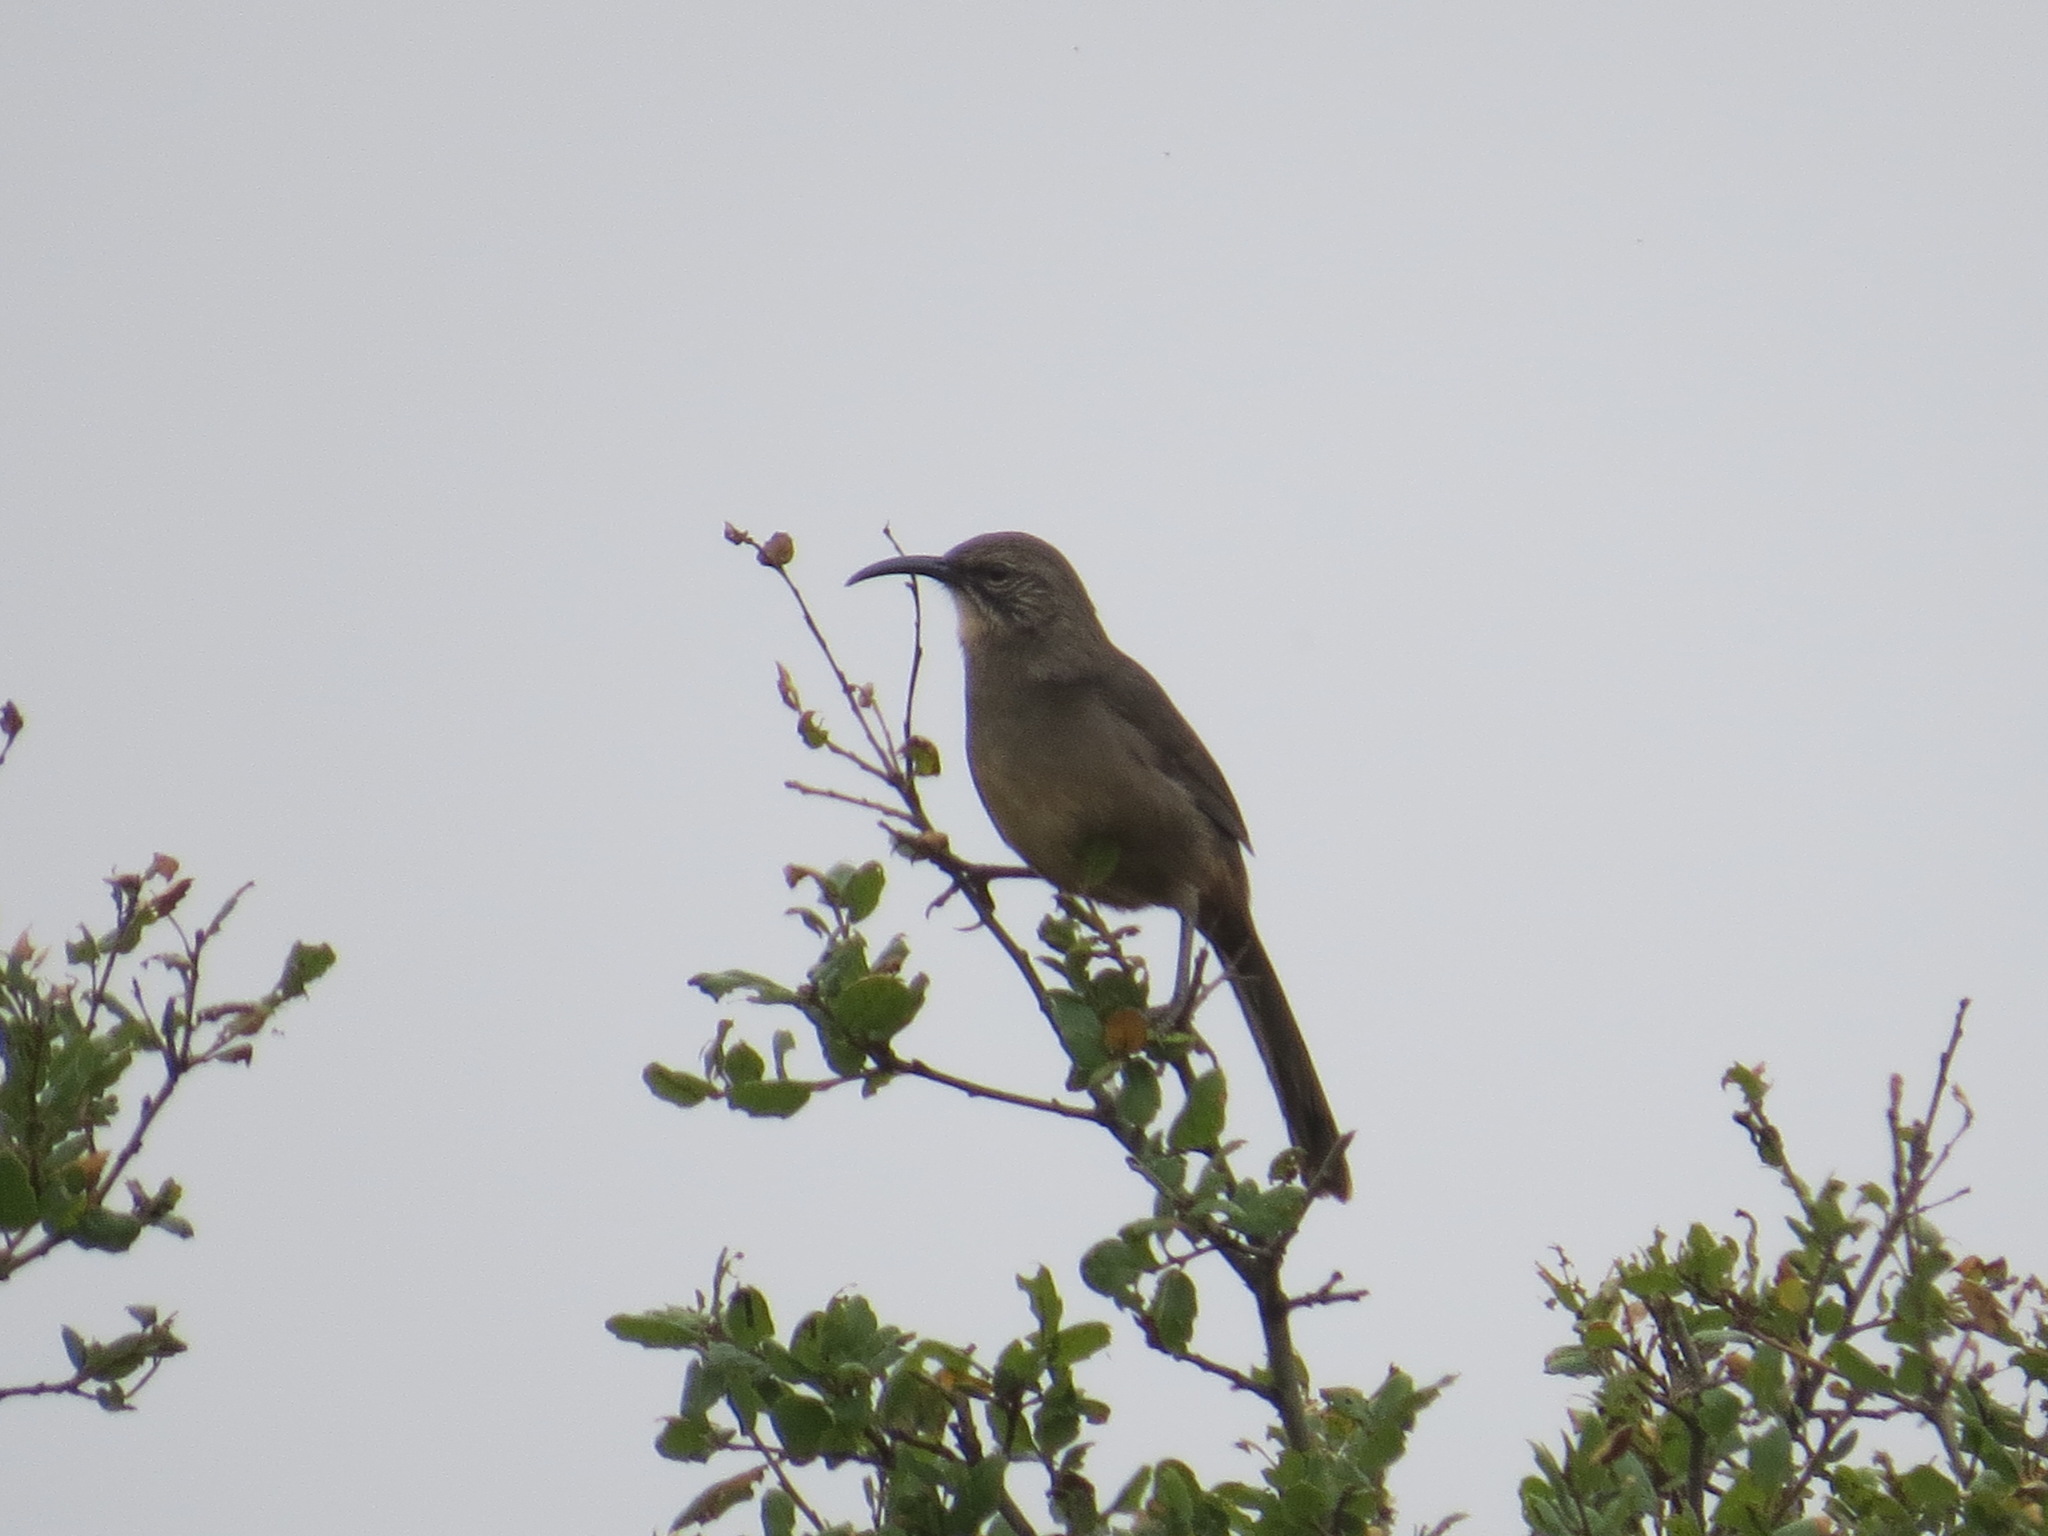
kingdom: Animalia
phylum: Chordata
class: Aves
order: Passeriformes
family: Mimidae
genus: Toxostoma
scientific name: Toxostoma redivivum
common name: California thrasher
